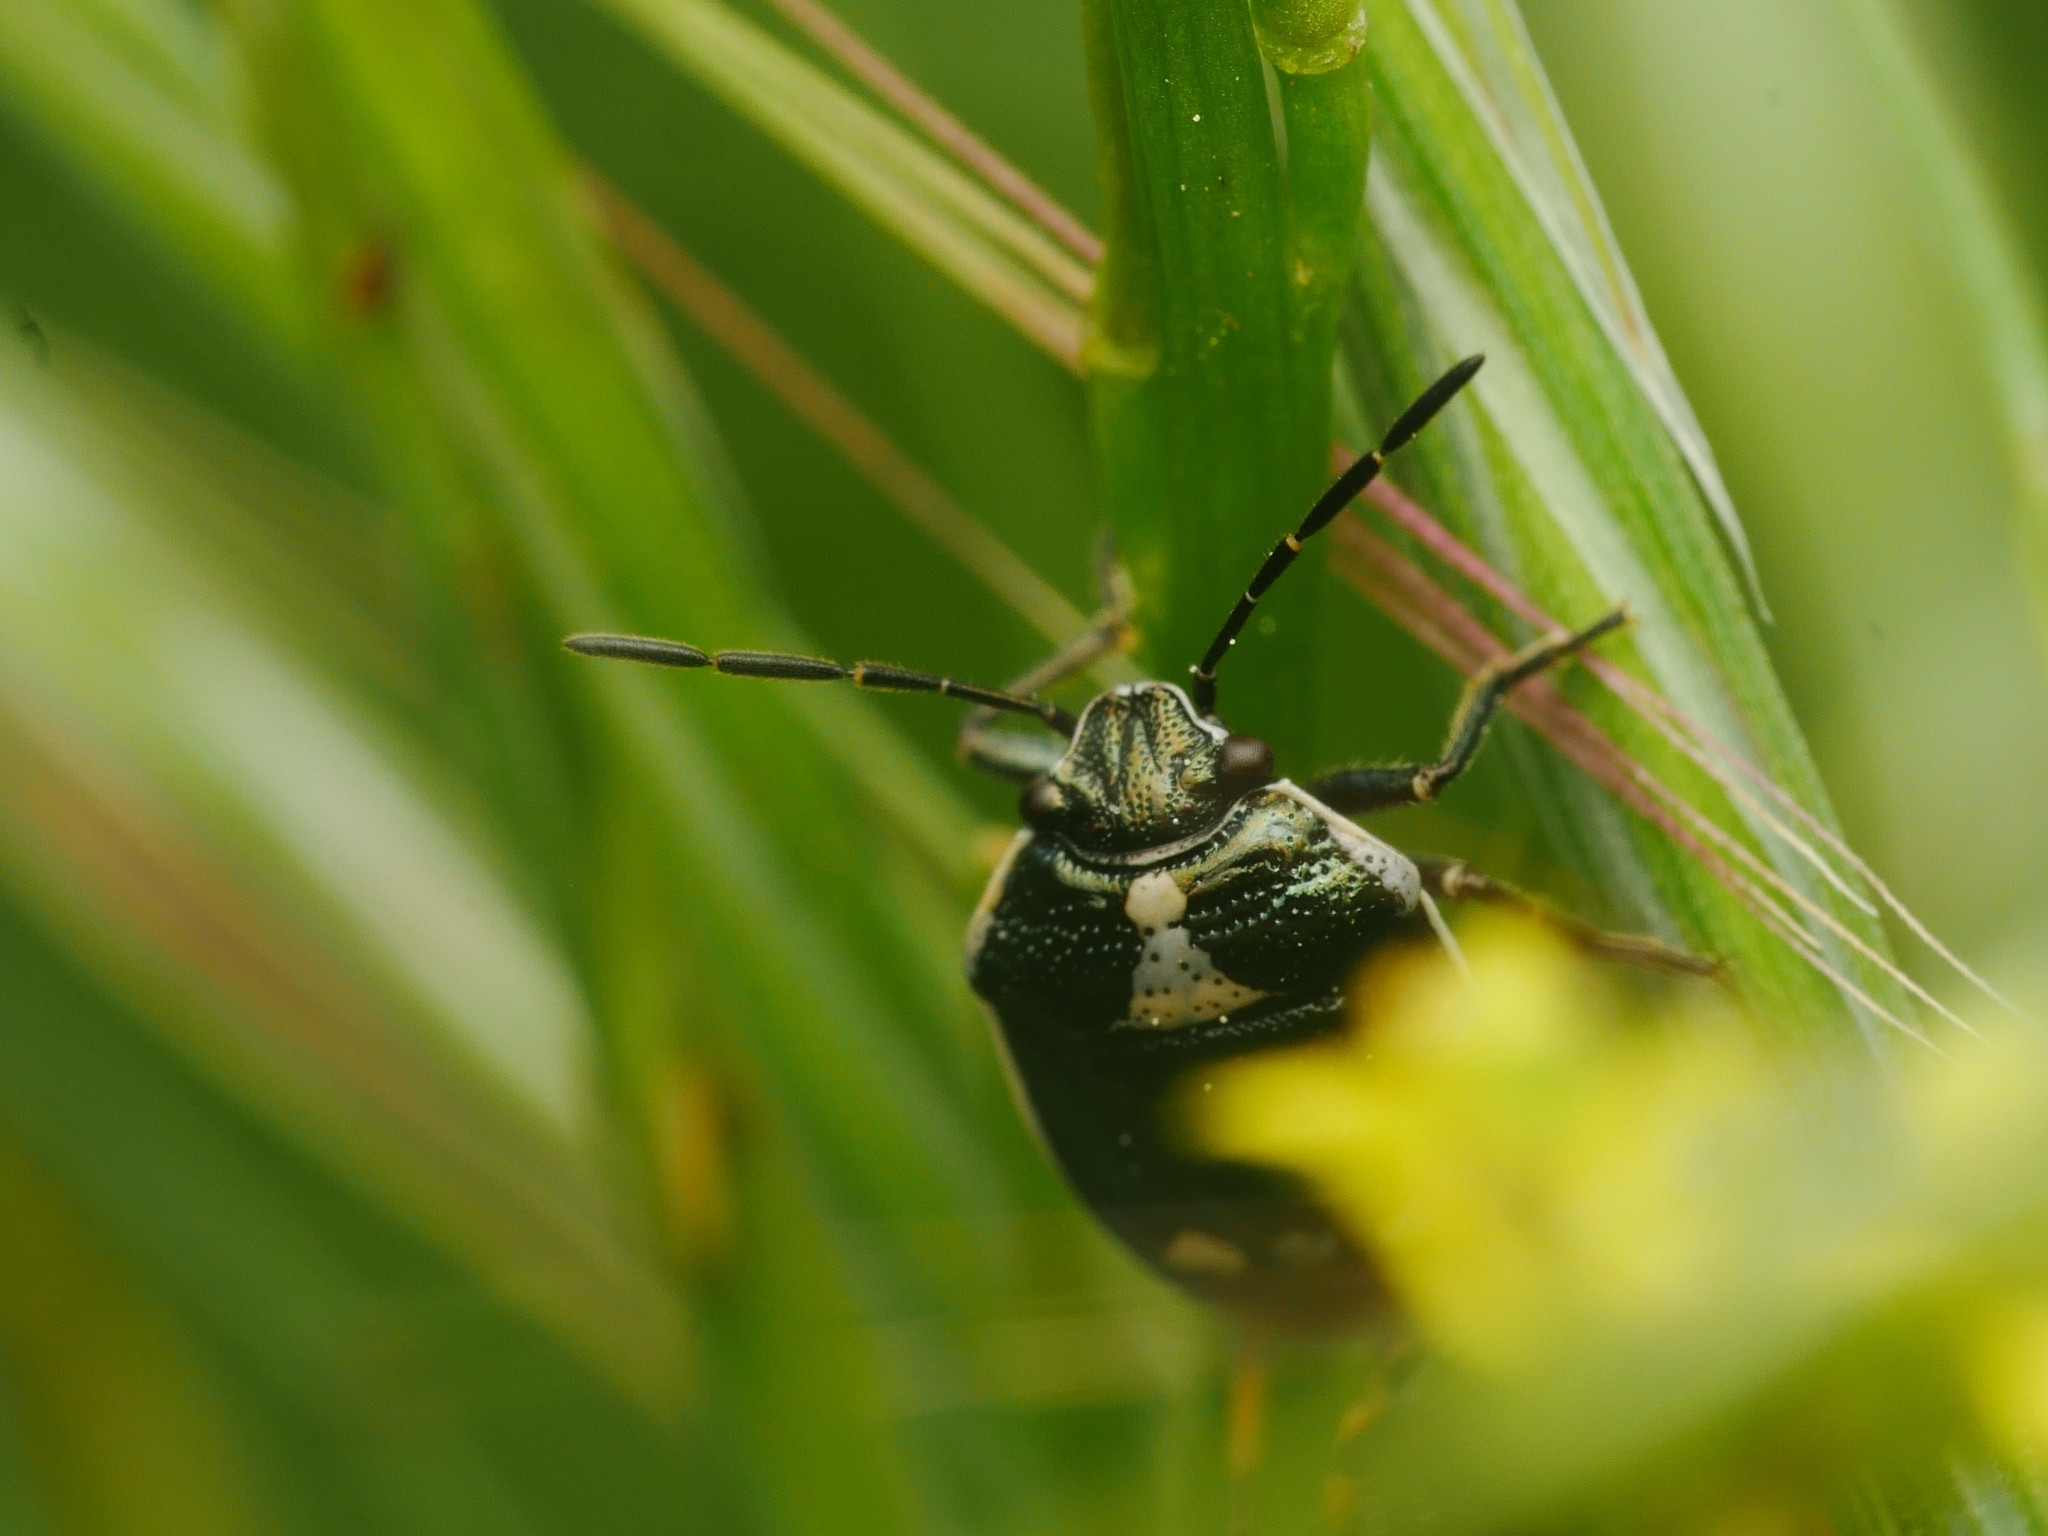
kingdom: Animalia
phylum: Arthropoda
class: Insecta
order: Hemiptera
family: Pentatomidae
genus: Eurydema
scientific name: Eurydema oleracea
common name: Cabbage bug
